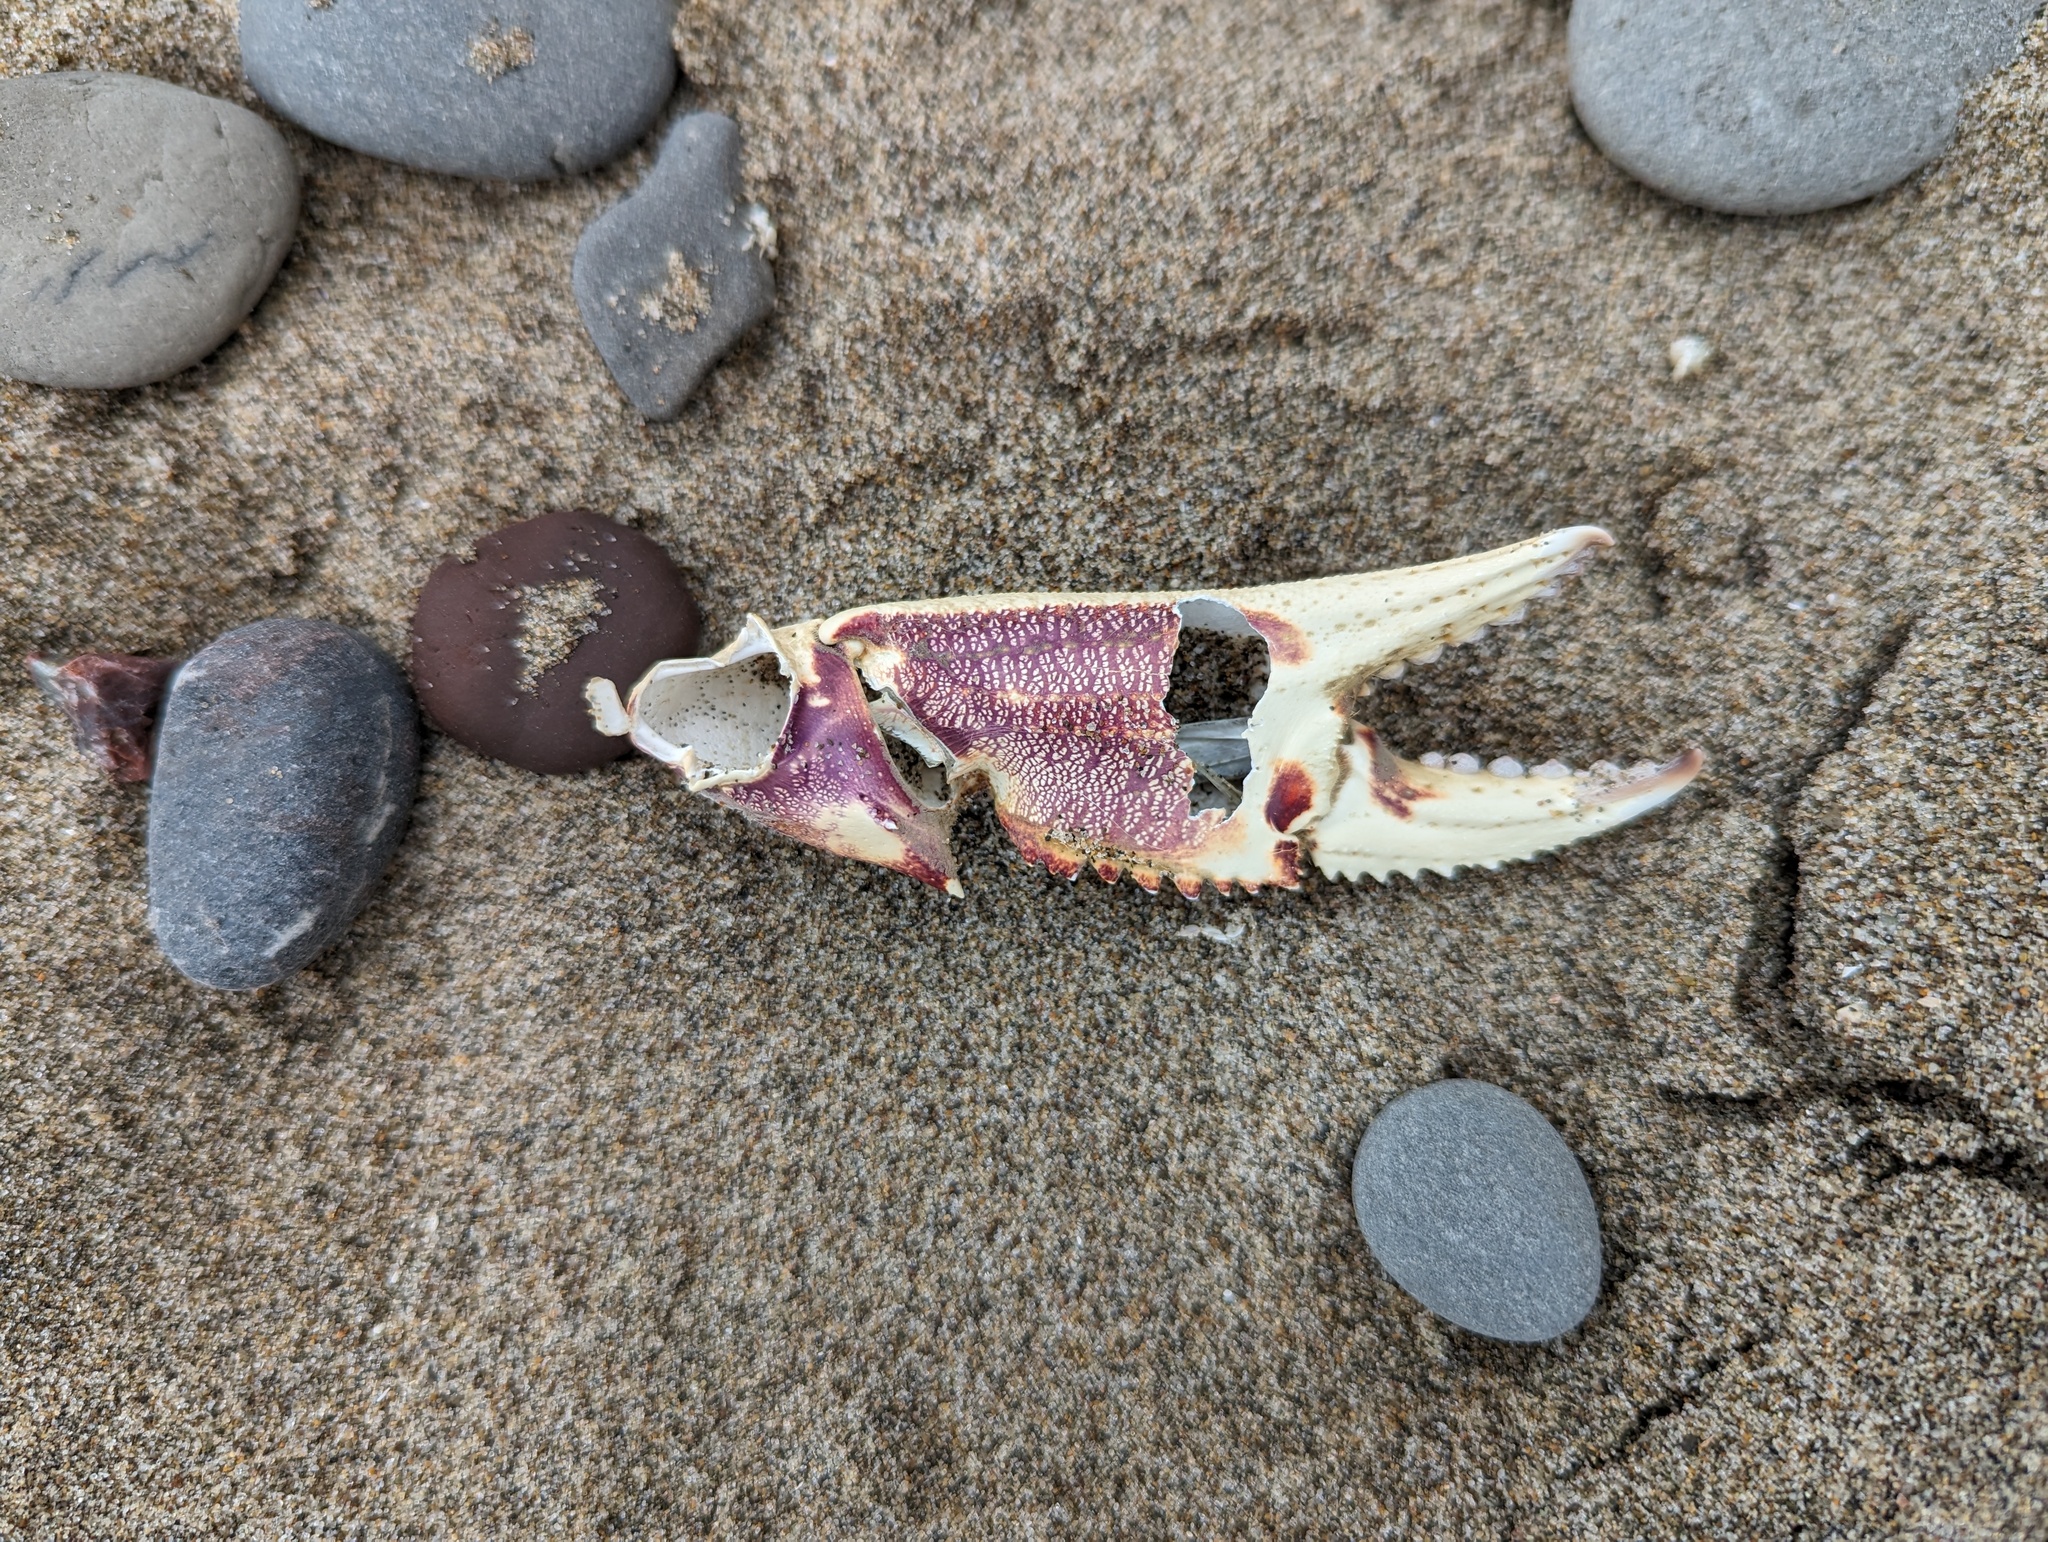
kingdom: Animalia
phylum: Arthropoda
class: Malacostraca
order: Decapoda
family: Cancridae
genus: Metacarcinus
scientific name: Metacarcinus magister
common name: Californian crab
